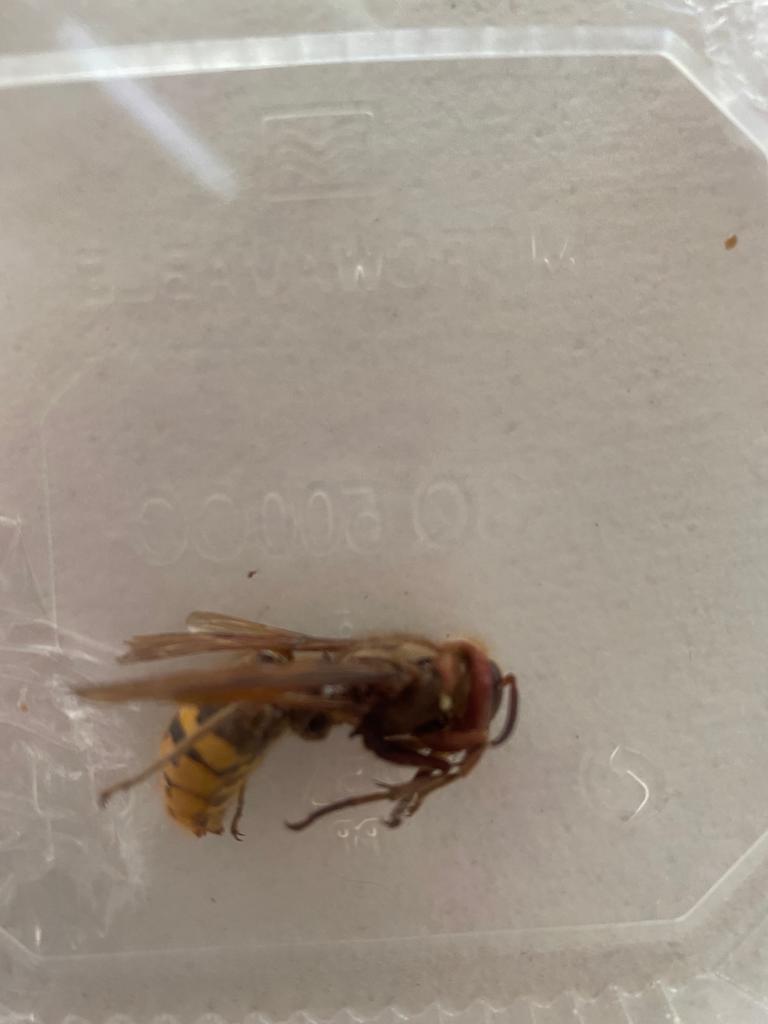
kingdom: Animalia
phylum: Arthropoda
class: Insecta
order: Hymenoptera
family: Vespidae
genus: Vespa
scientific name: Vespa crabro
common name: Hornet
